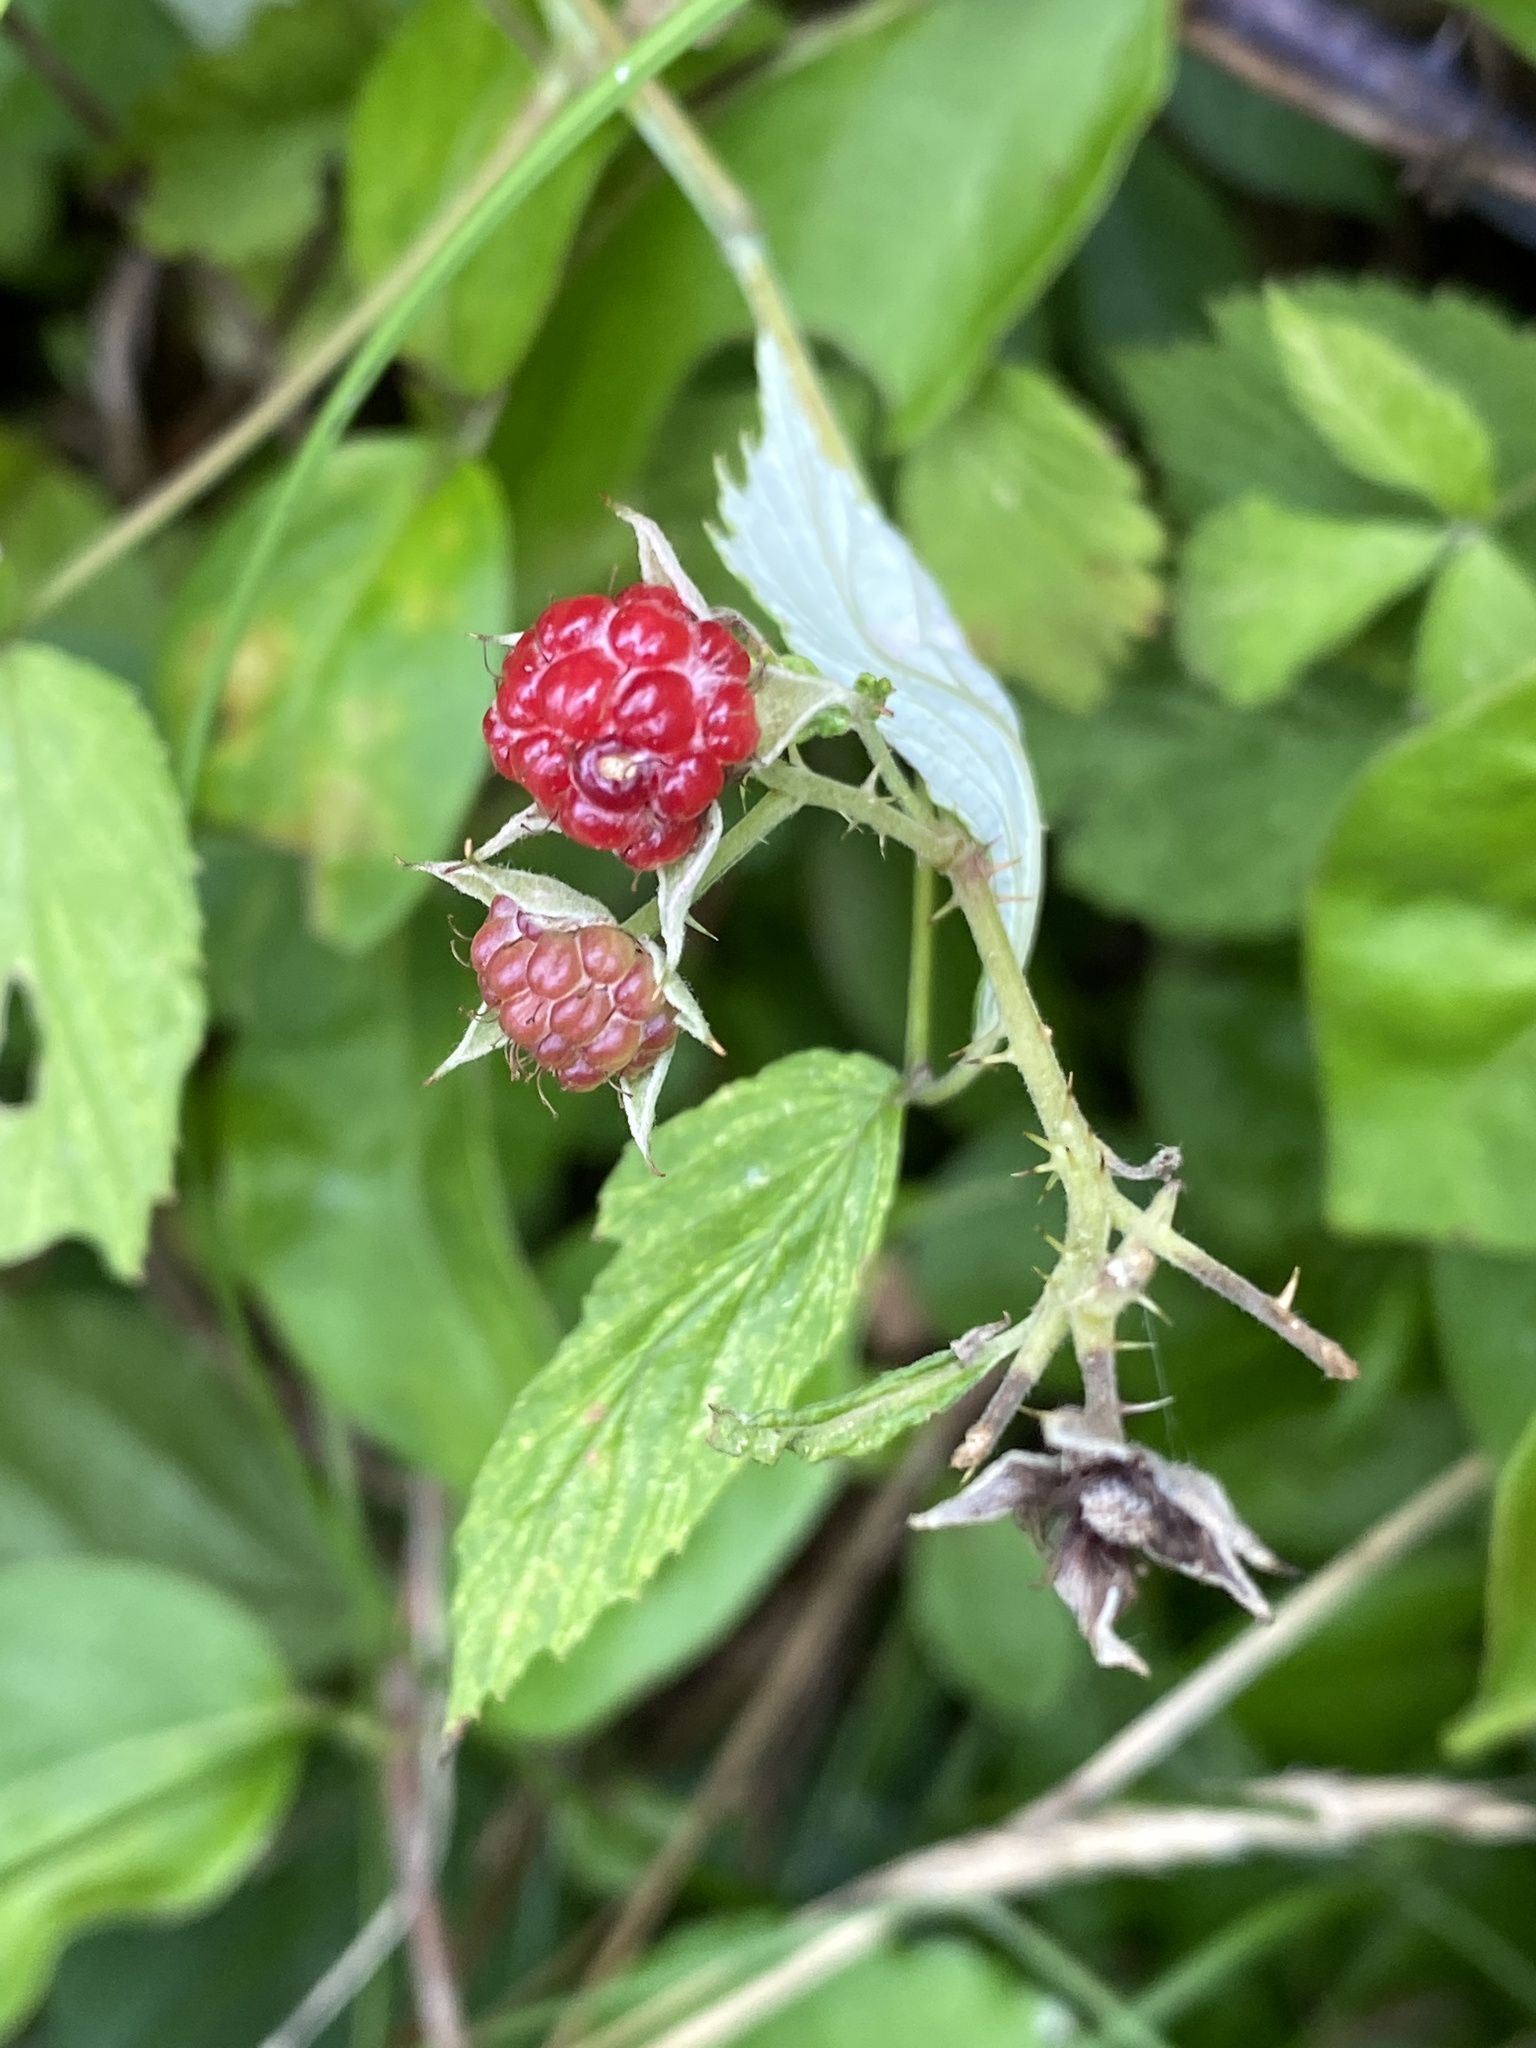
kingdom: Plantae
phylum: Tracheophyta
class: Magnoliopsida
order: Rosales
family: Rosaceae
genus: Rubus
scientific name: Rubus occidentalis
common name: Black raspberry
